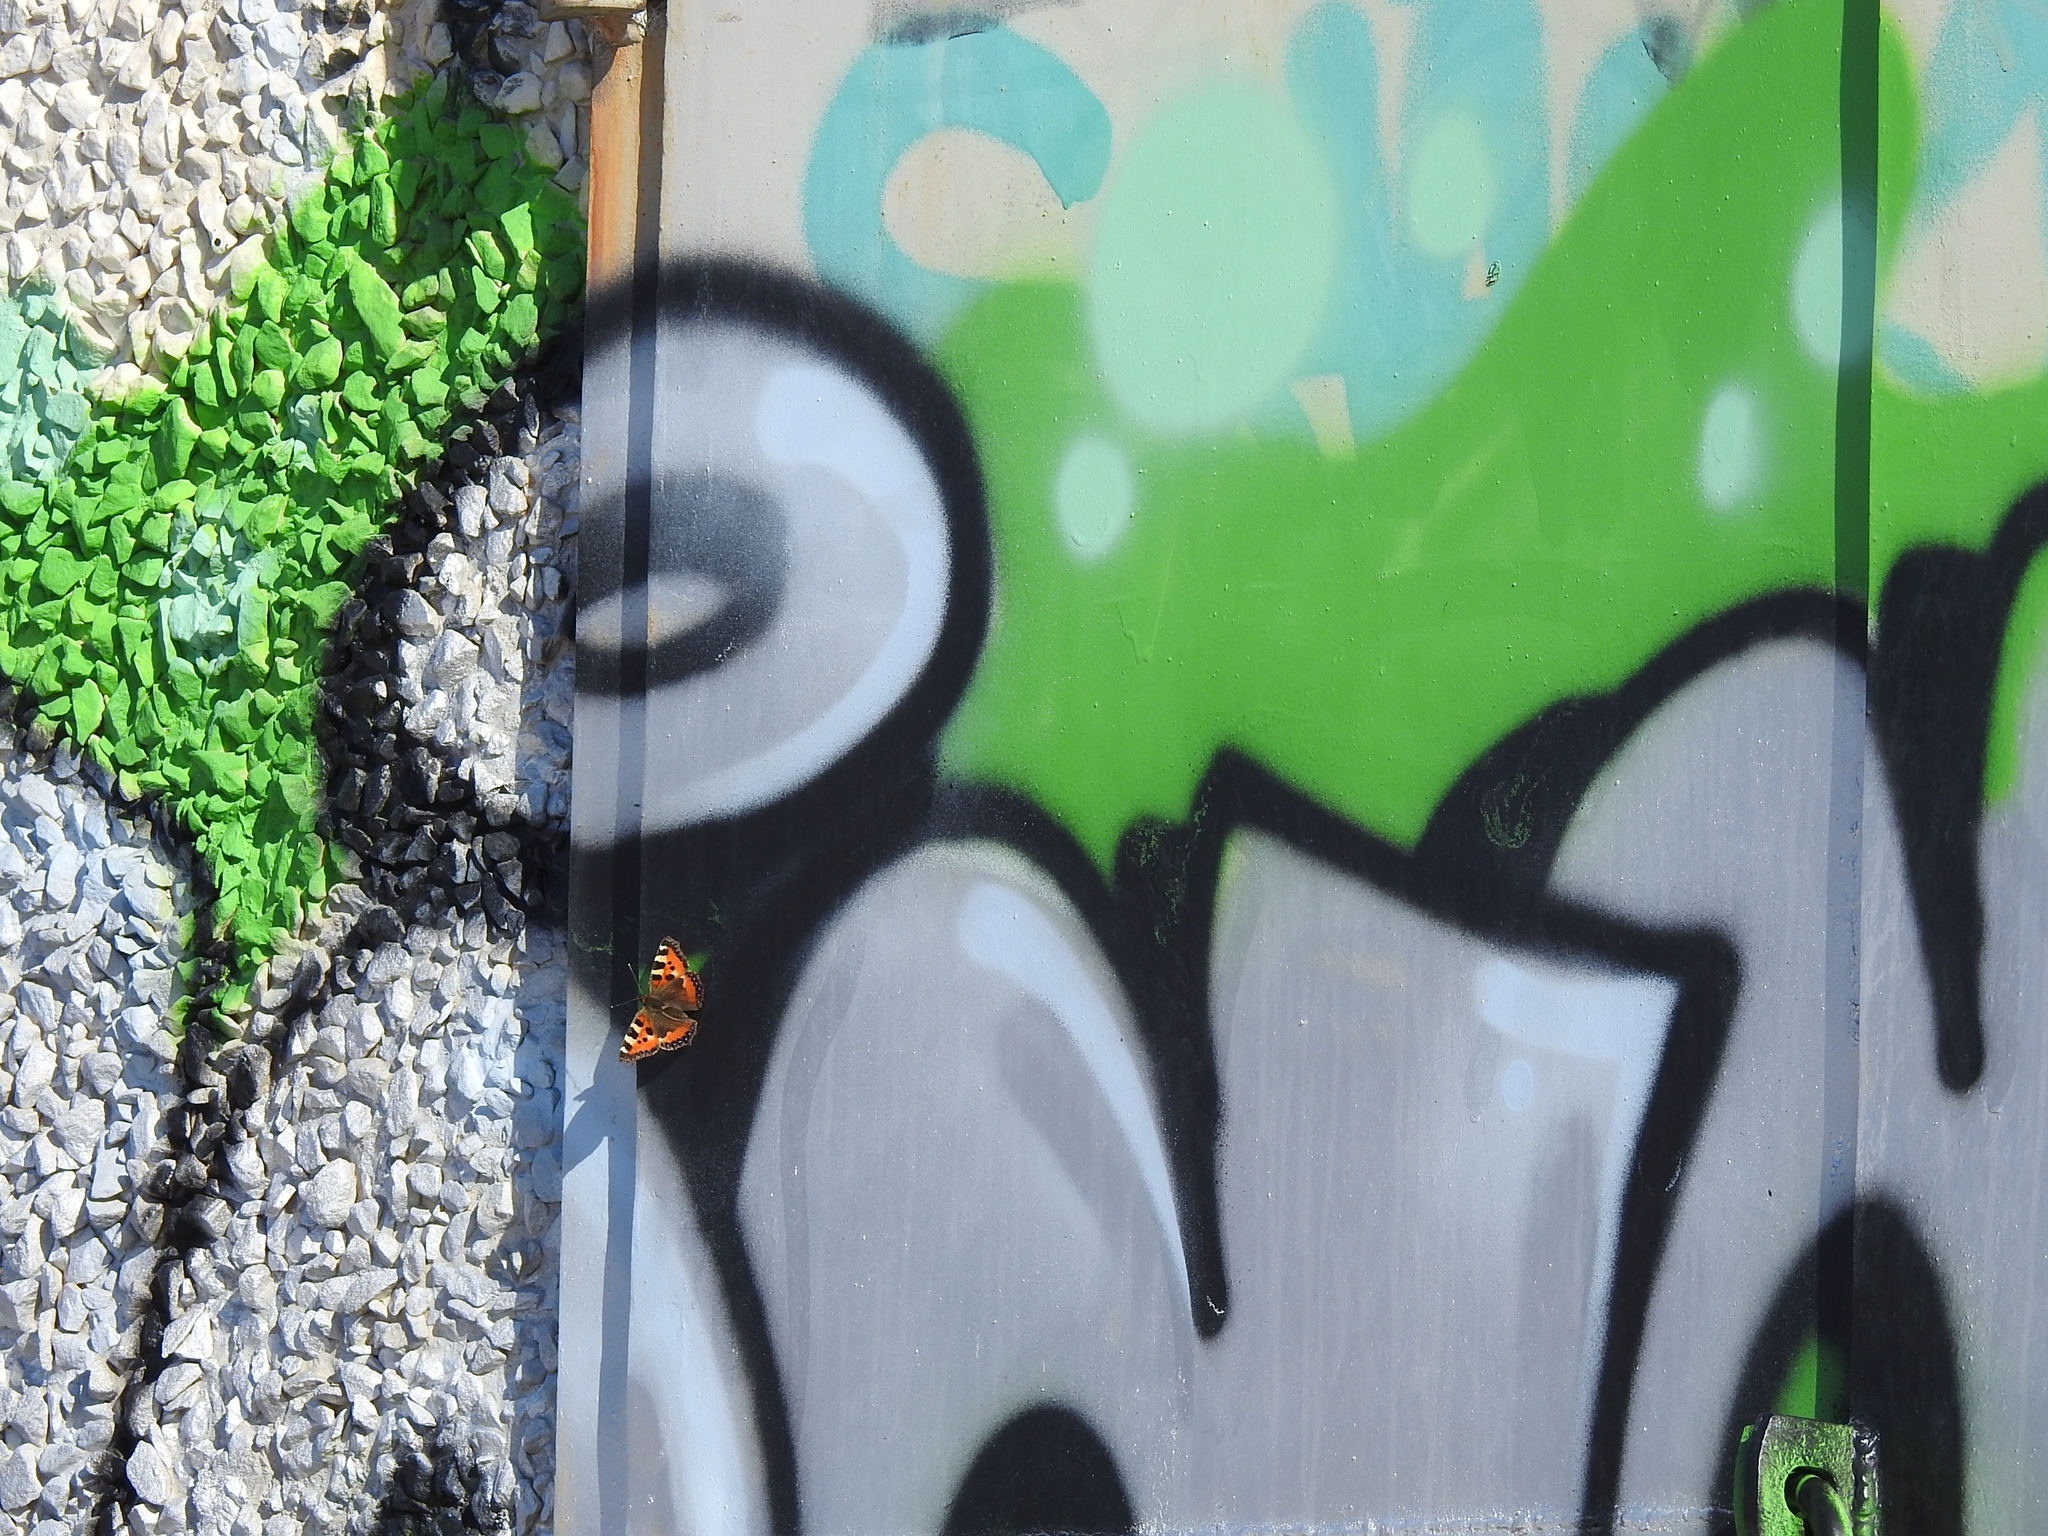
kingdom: Animalia
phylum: Arthropoda
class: Insecta
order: Lepidoptera
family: Nymphalidae
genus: Aglais
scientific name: Aglais urticae
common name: Small tortoiseshell
